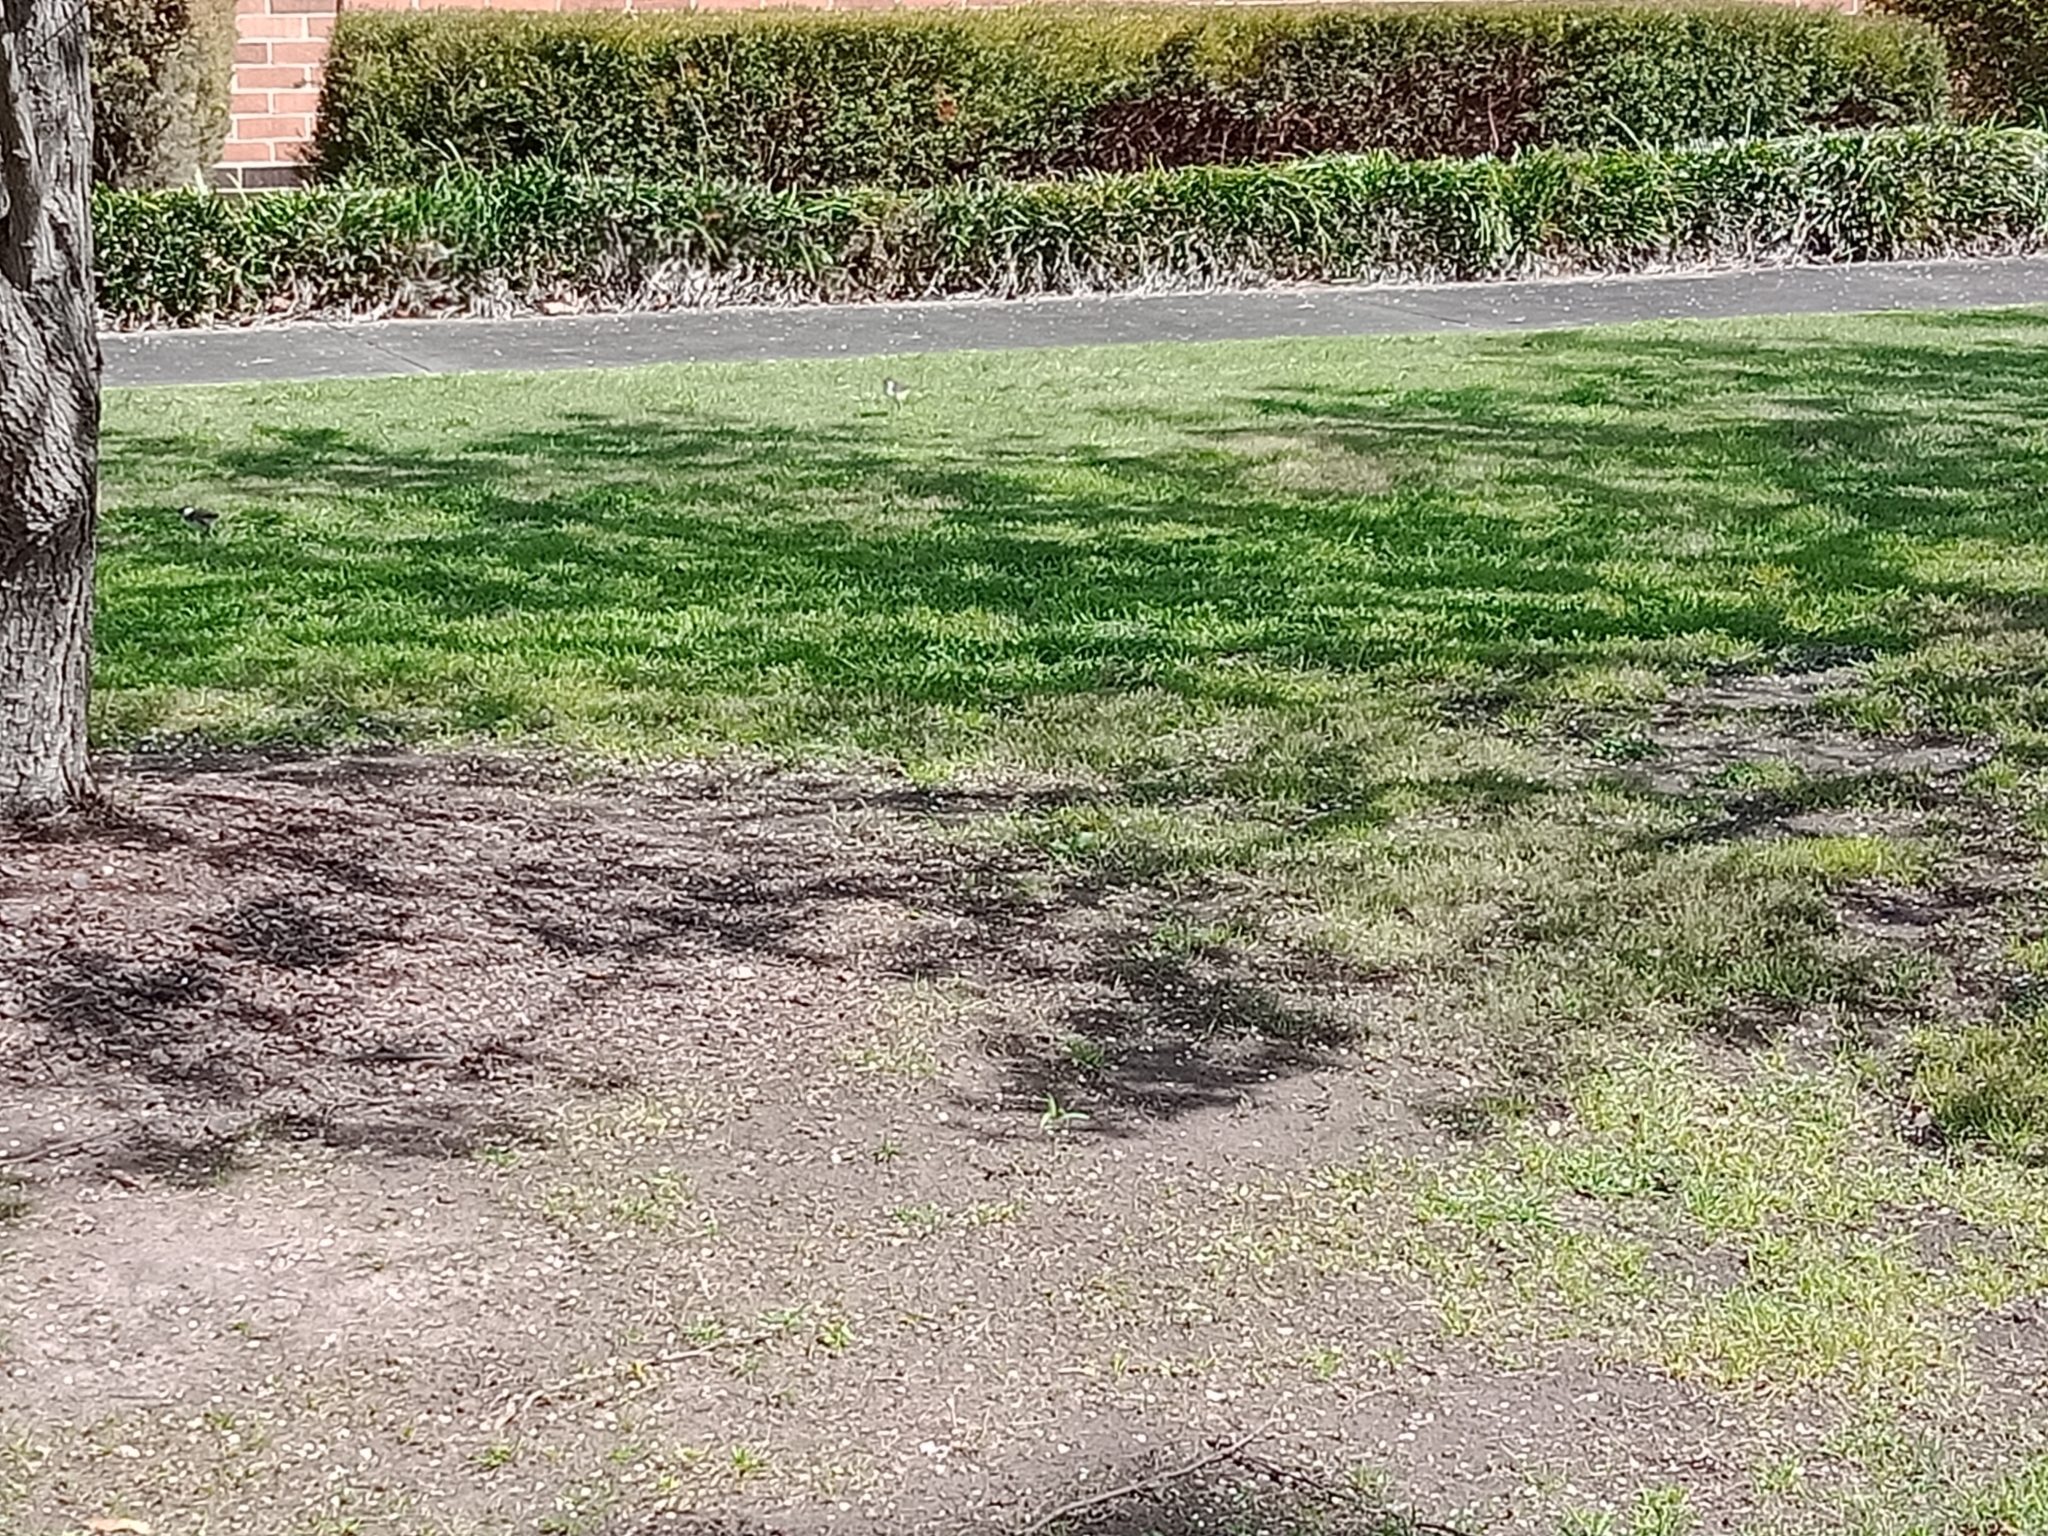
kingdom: Animalia
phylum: Chordata
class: Aves
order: Charadriiformes
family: Charadriidae
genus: Vanellus
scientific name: Vanellus miles
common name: Masked lapwing
